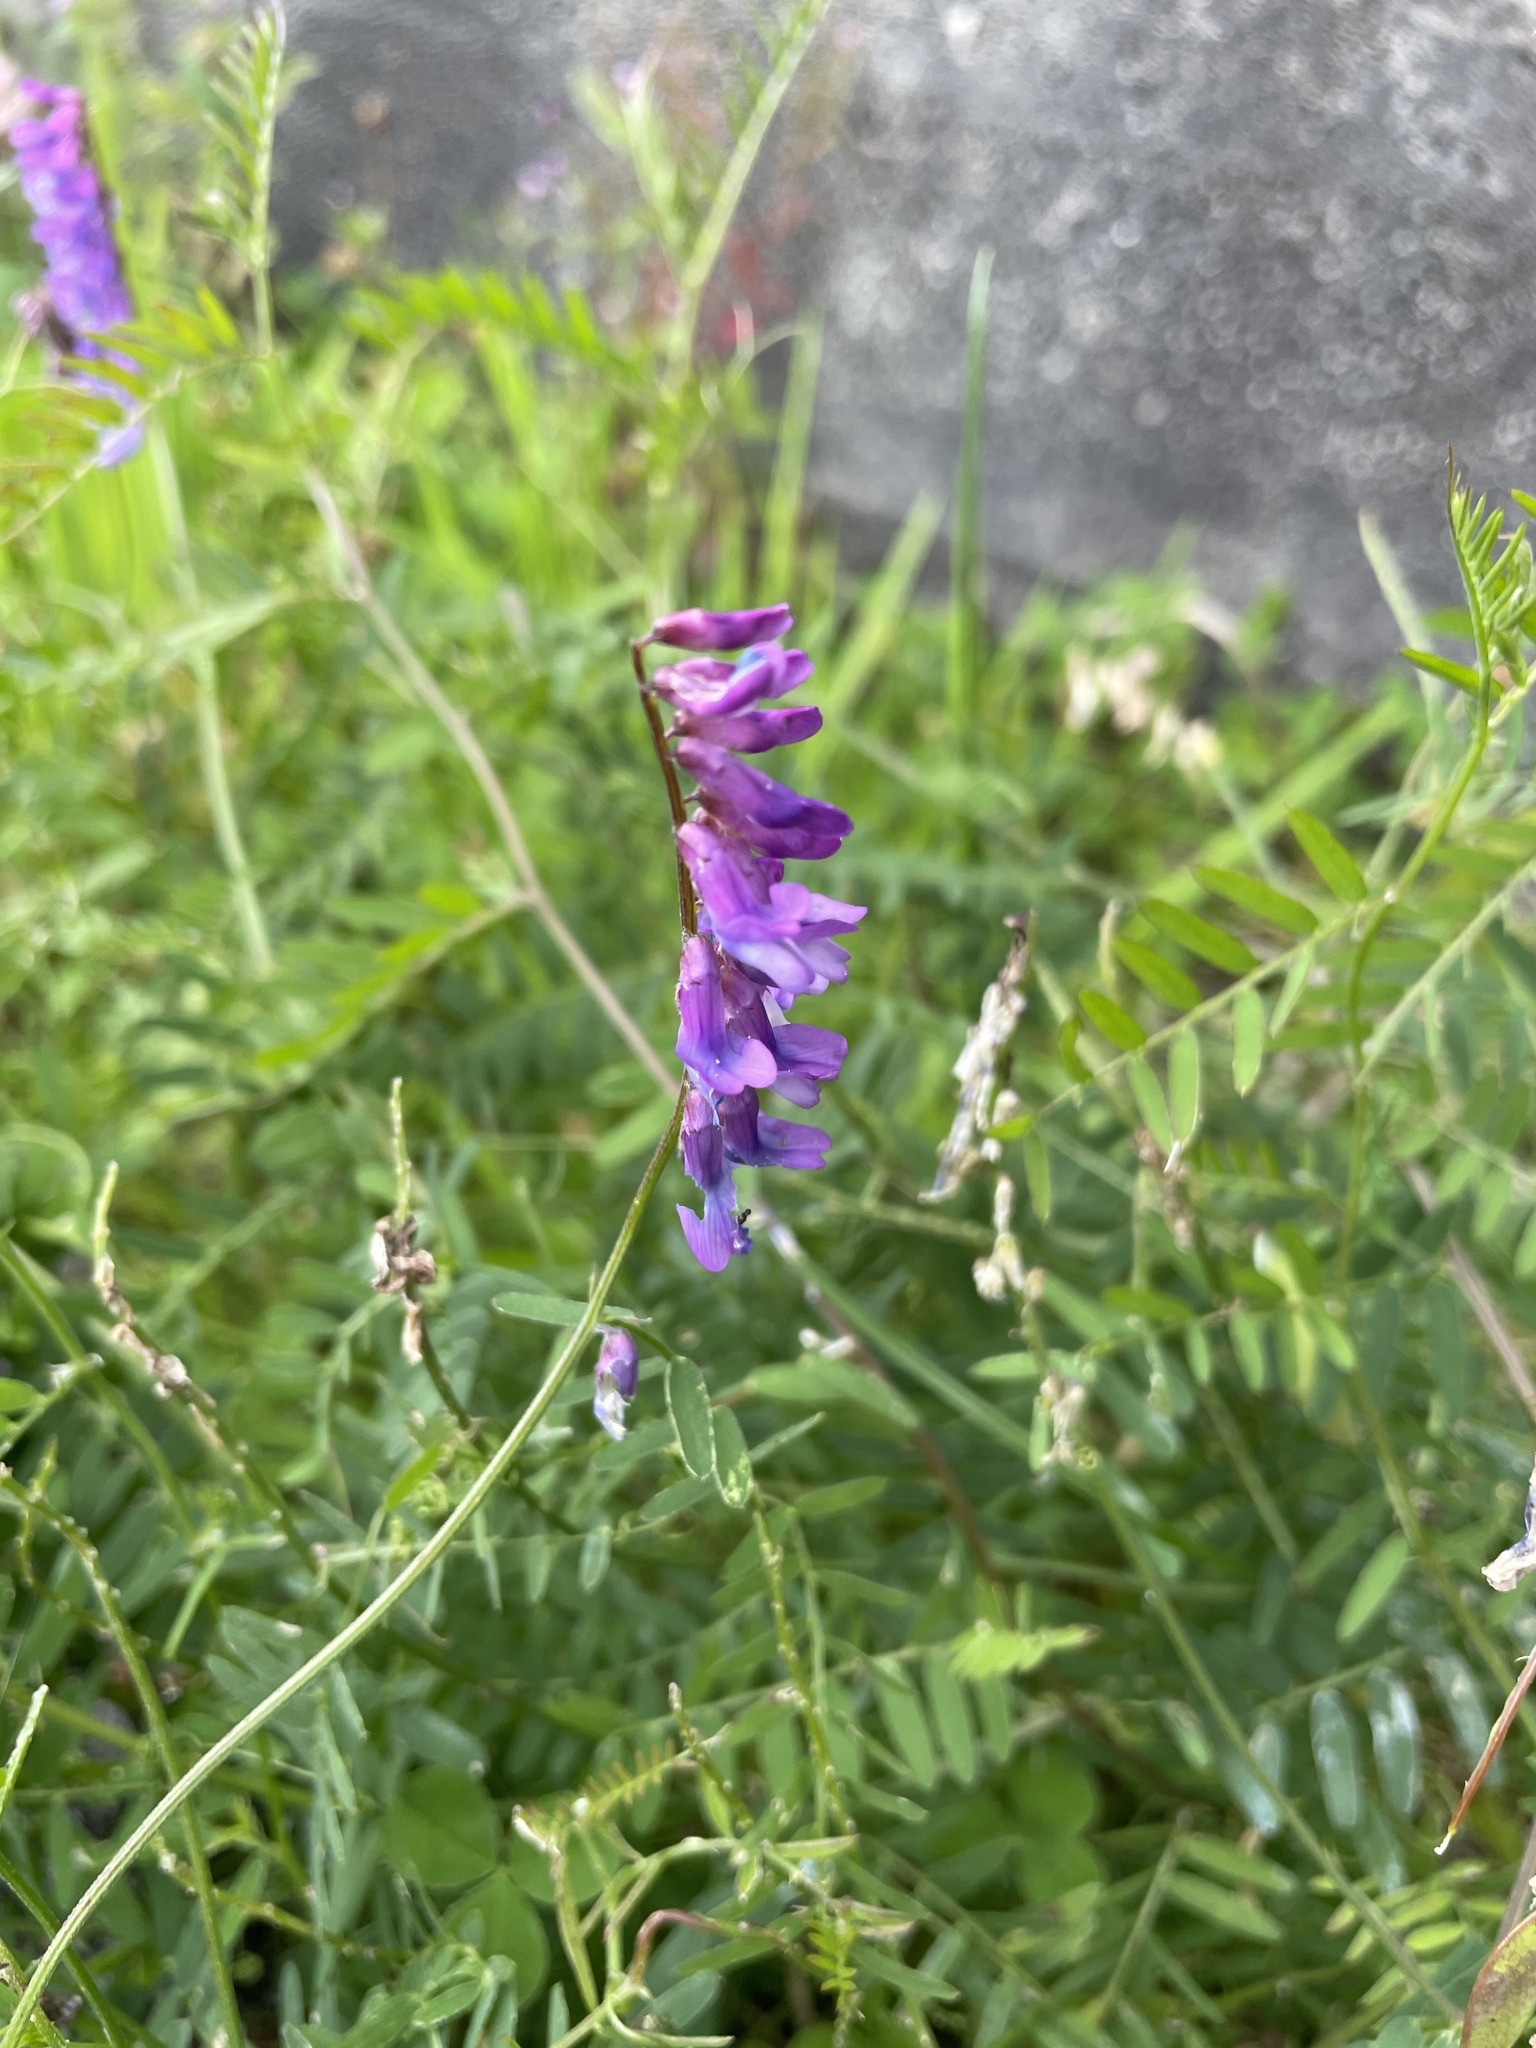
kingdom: Plantae
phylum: Tracheophyta
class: Magnoliopsida
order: Fabales
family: Fabaceae
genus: Vicia
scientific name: Vicia cracca
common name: Bird vetch
